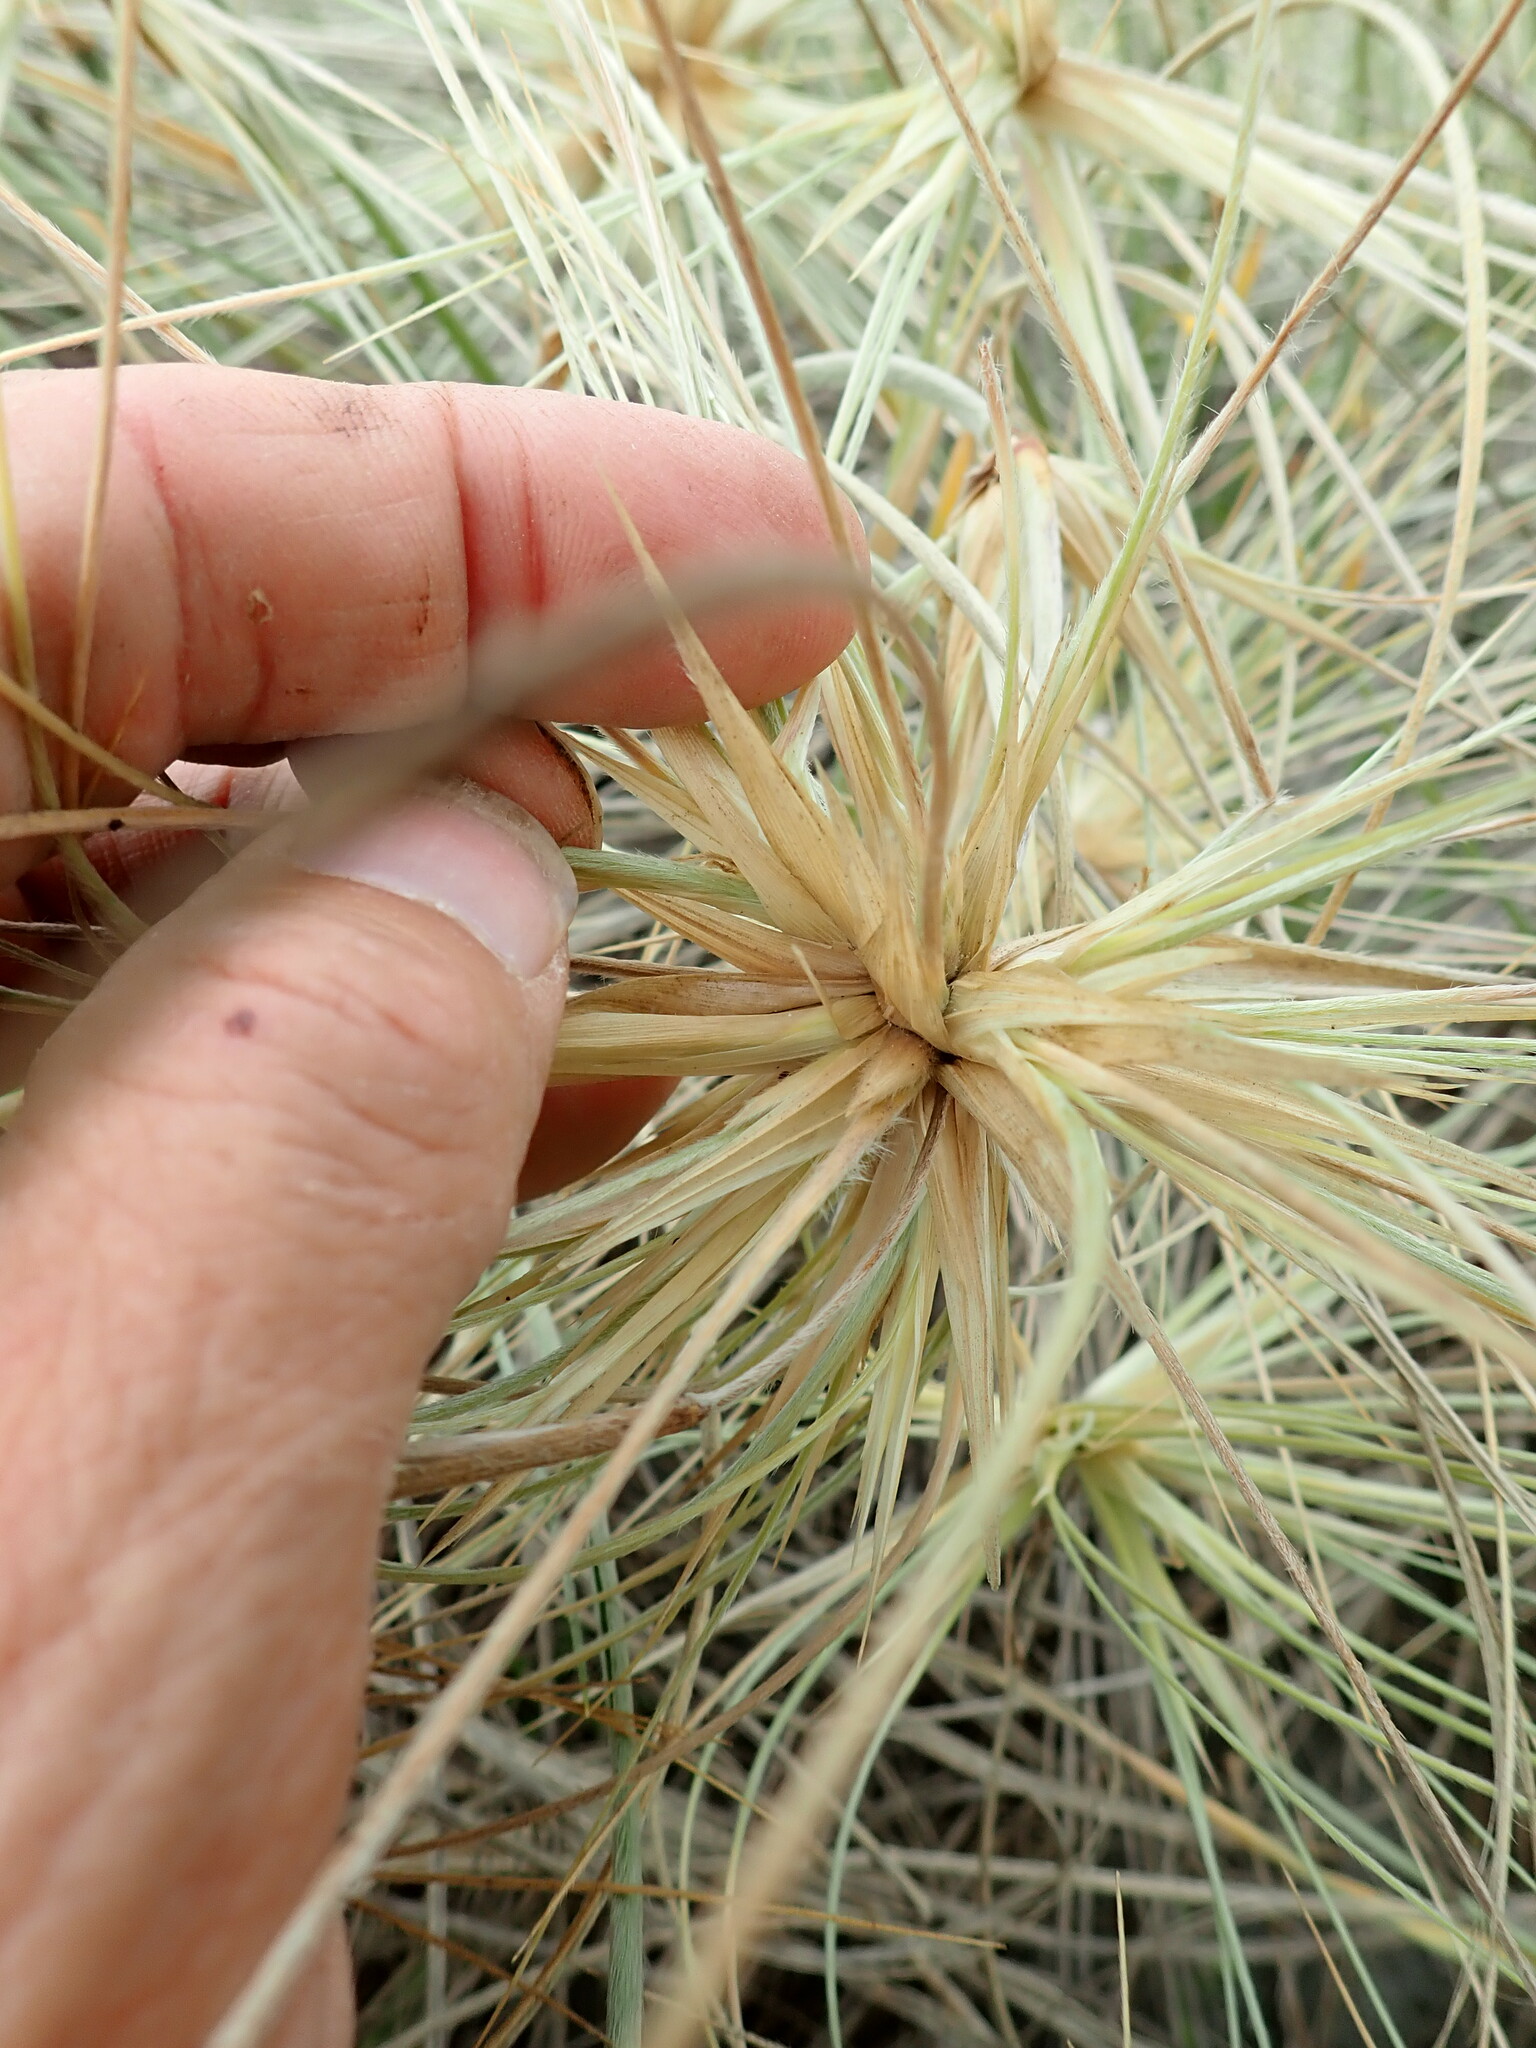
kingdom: Plantae
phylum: Tracheophyta
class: Liliopsida
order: Poales
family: Poaceae
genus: Spinifex
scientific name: Spinifex sericeus
